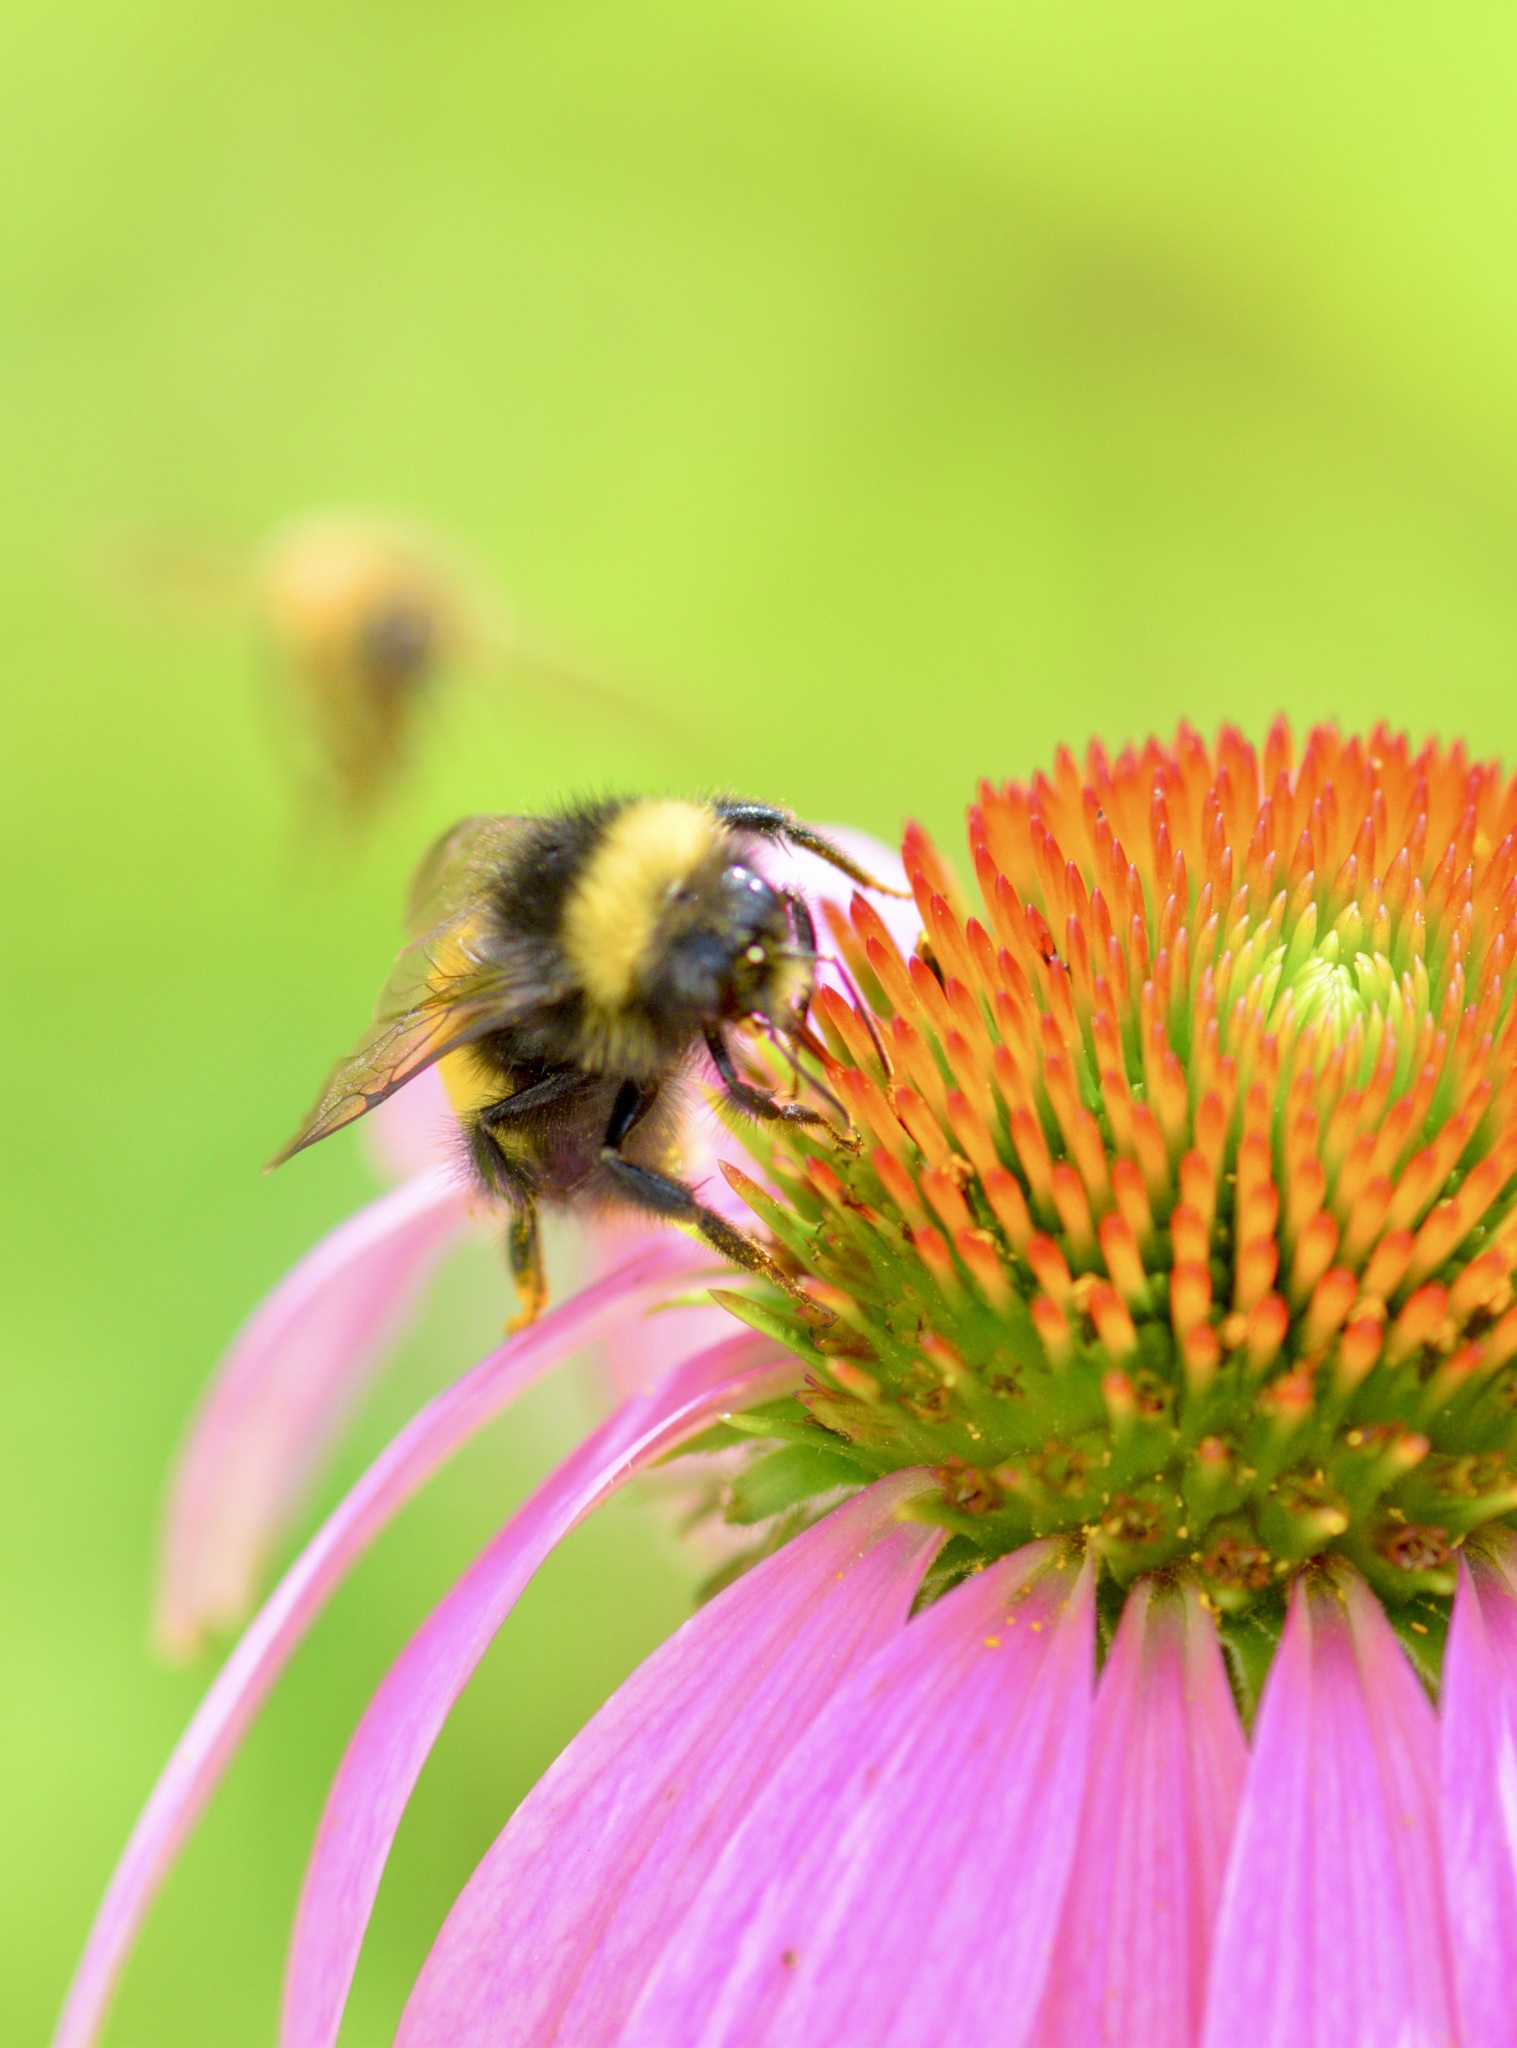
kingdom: Animalia
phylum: Arthropoda
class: Insecta
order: Hymenoptera
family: Apidae
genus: Bombus
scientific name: Bombus terricola
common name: Yellow-banded bumble bee
